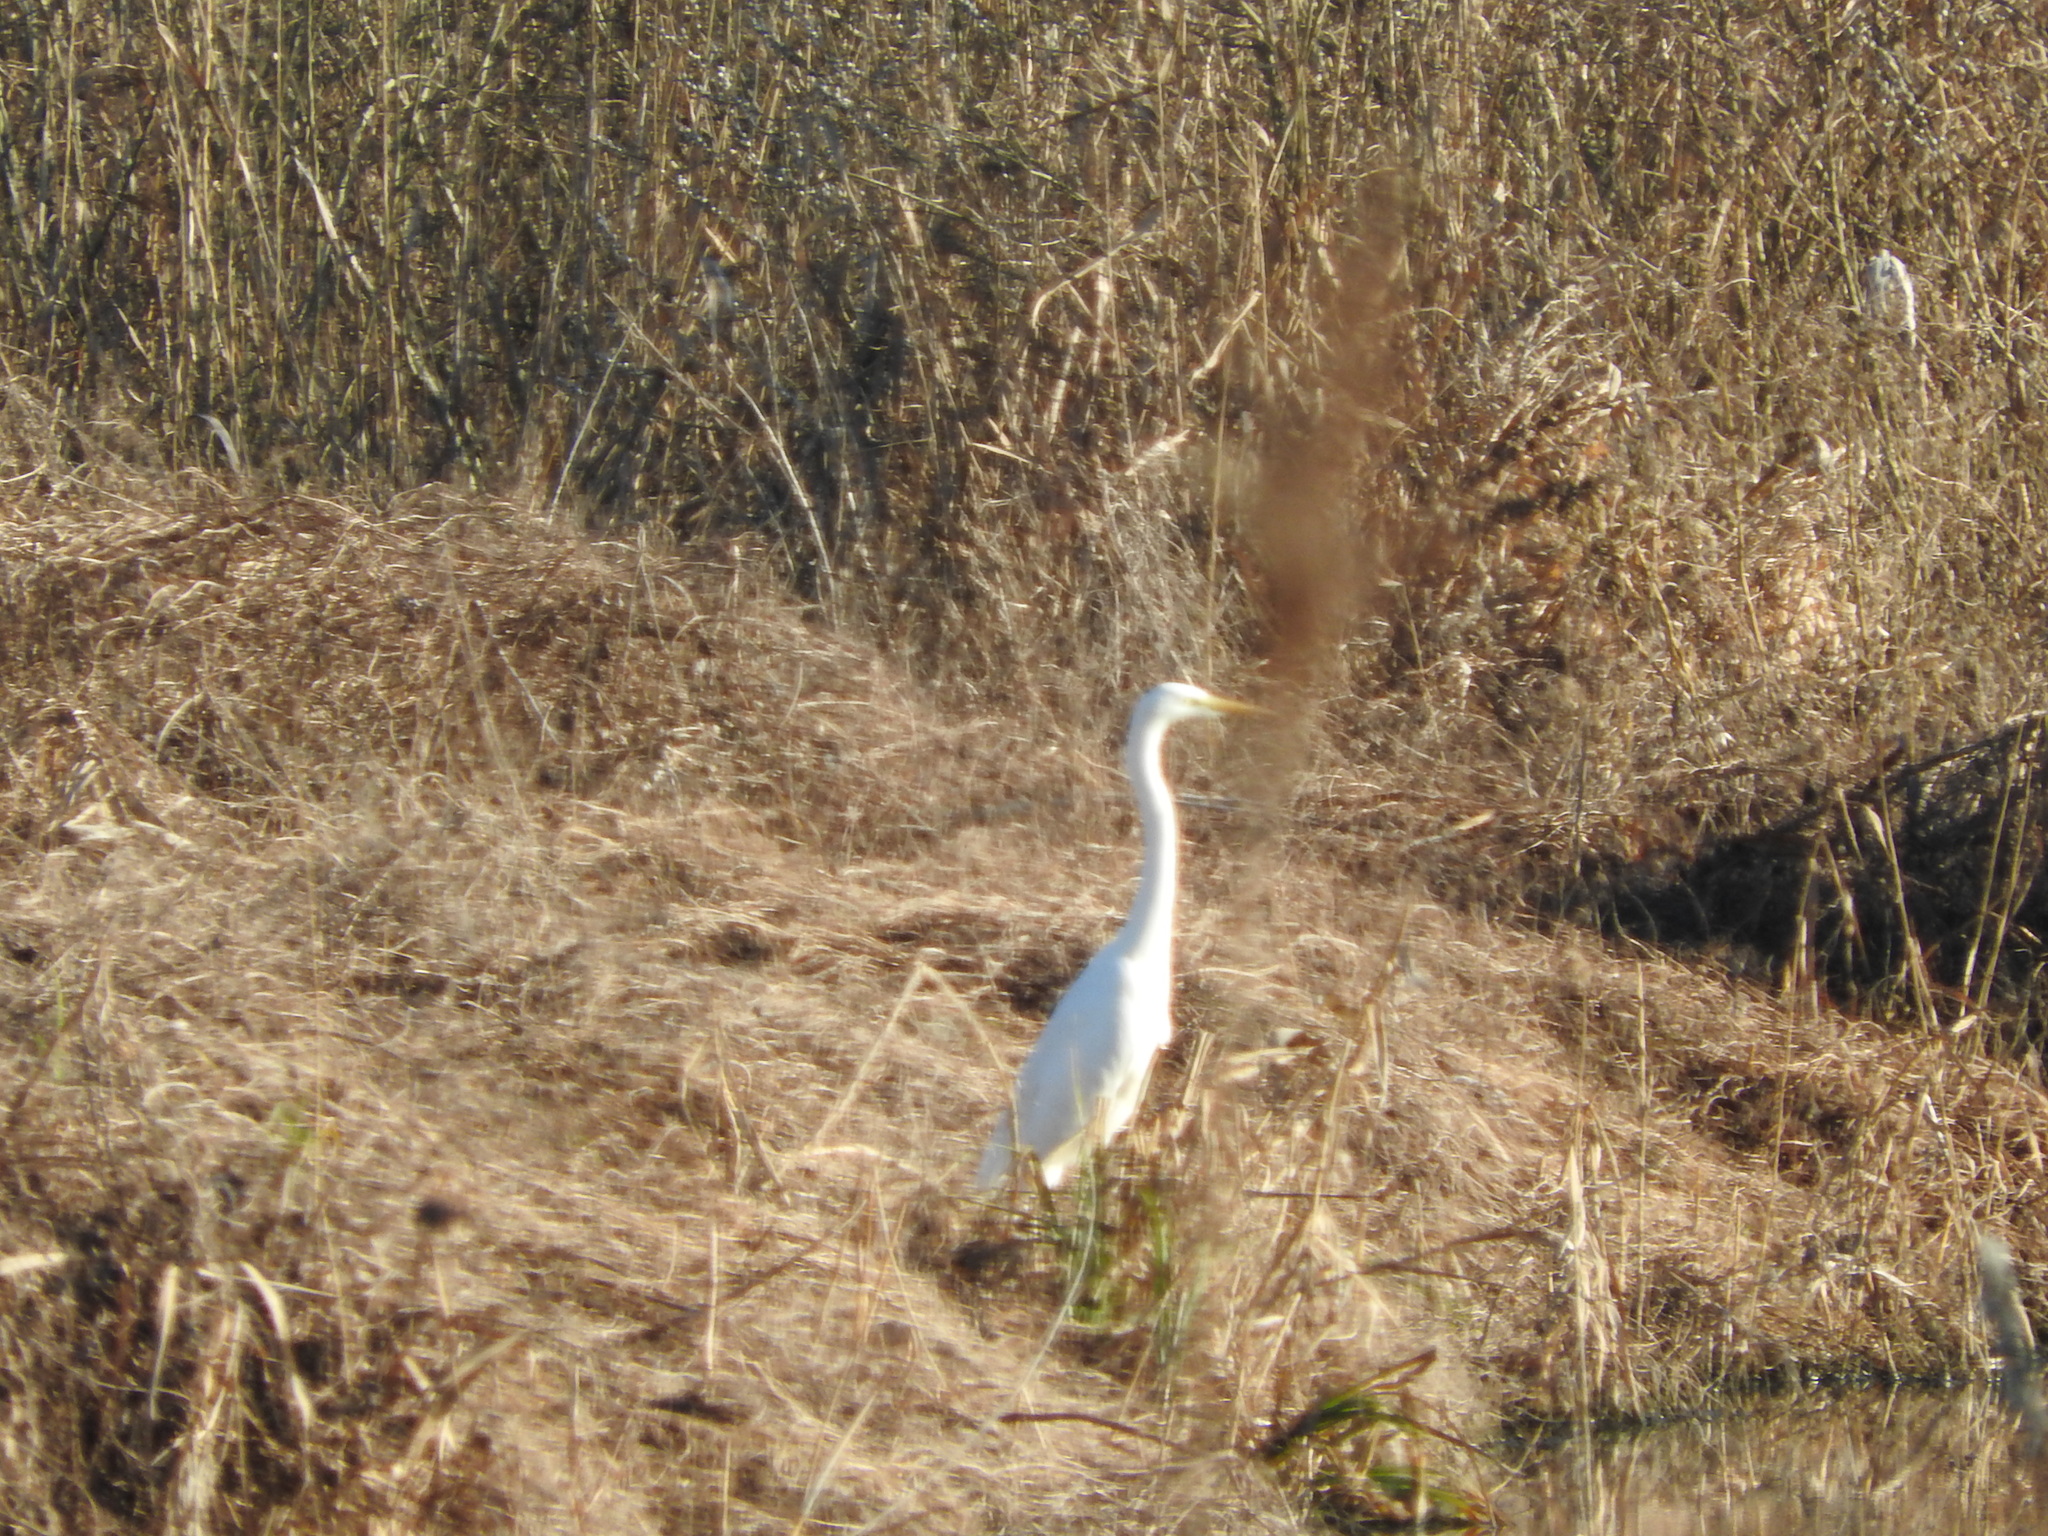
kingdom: Animalia
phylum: Chordata
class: Aves
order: Pelecaniformes
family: Ardeidae
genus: Ardea
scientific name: Ardea alba
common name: Great egret
